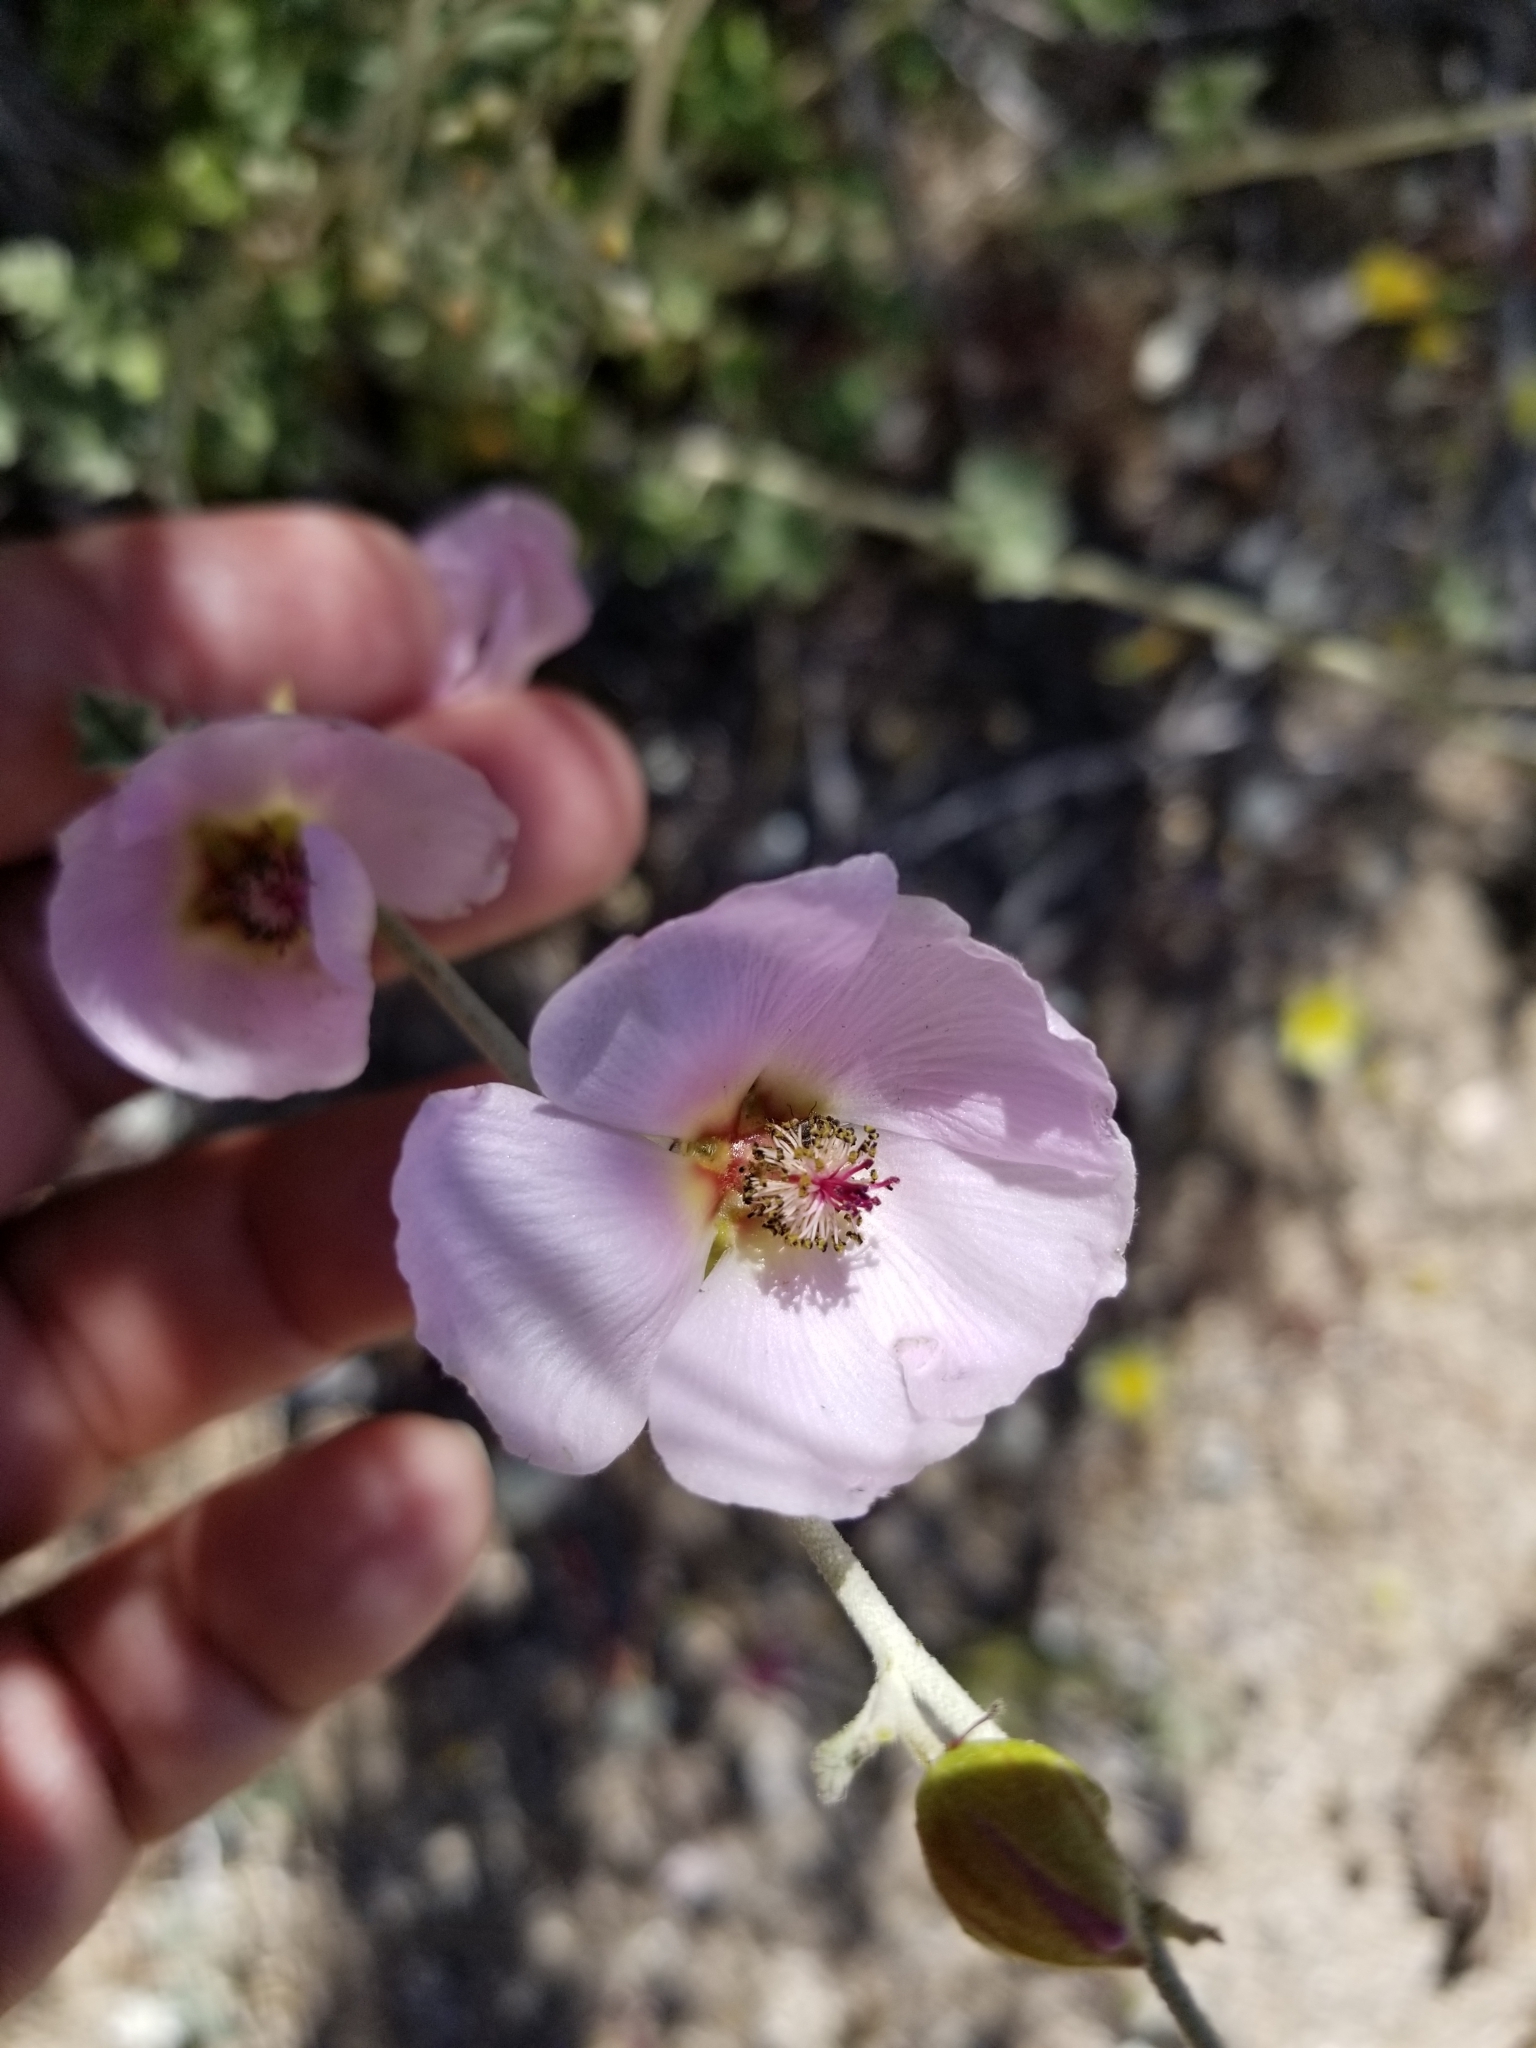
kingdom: Plantae
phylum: Tracheophyta
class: Magnoliopsida
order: Malvales
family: Malvaceae
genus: Sphaeralcea
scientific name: Sphaeralcea ambigua
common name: Apricot globe-mallow
